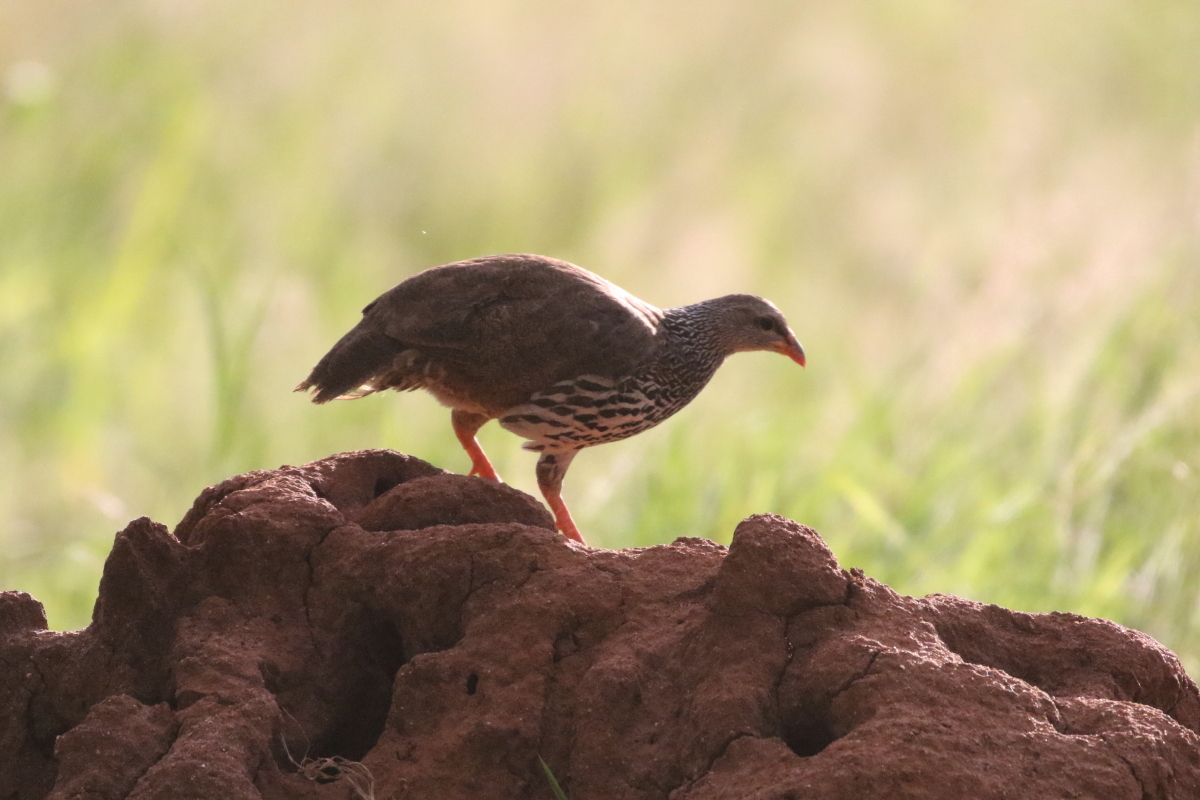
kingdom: Animalia
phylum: Chordata
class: Aves
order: Galliformes
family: Phasianidae
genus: Pternistis
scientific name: Pternistis hildebrandti
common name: Hildebrandt's francolin
